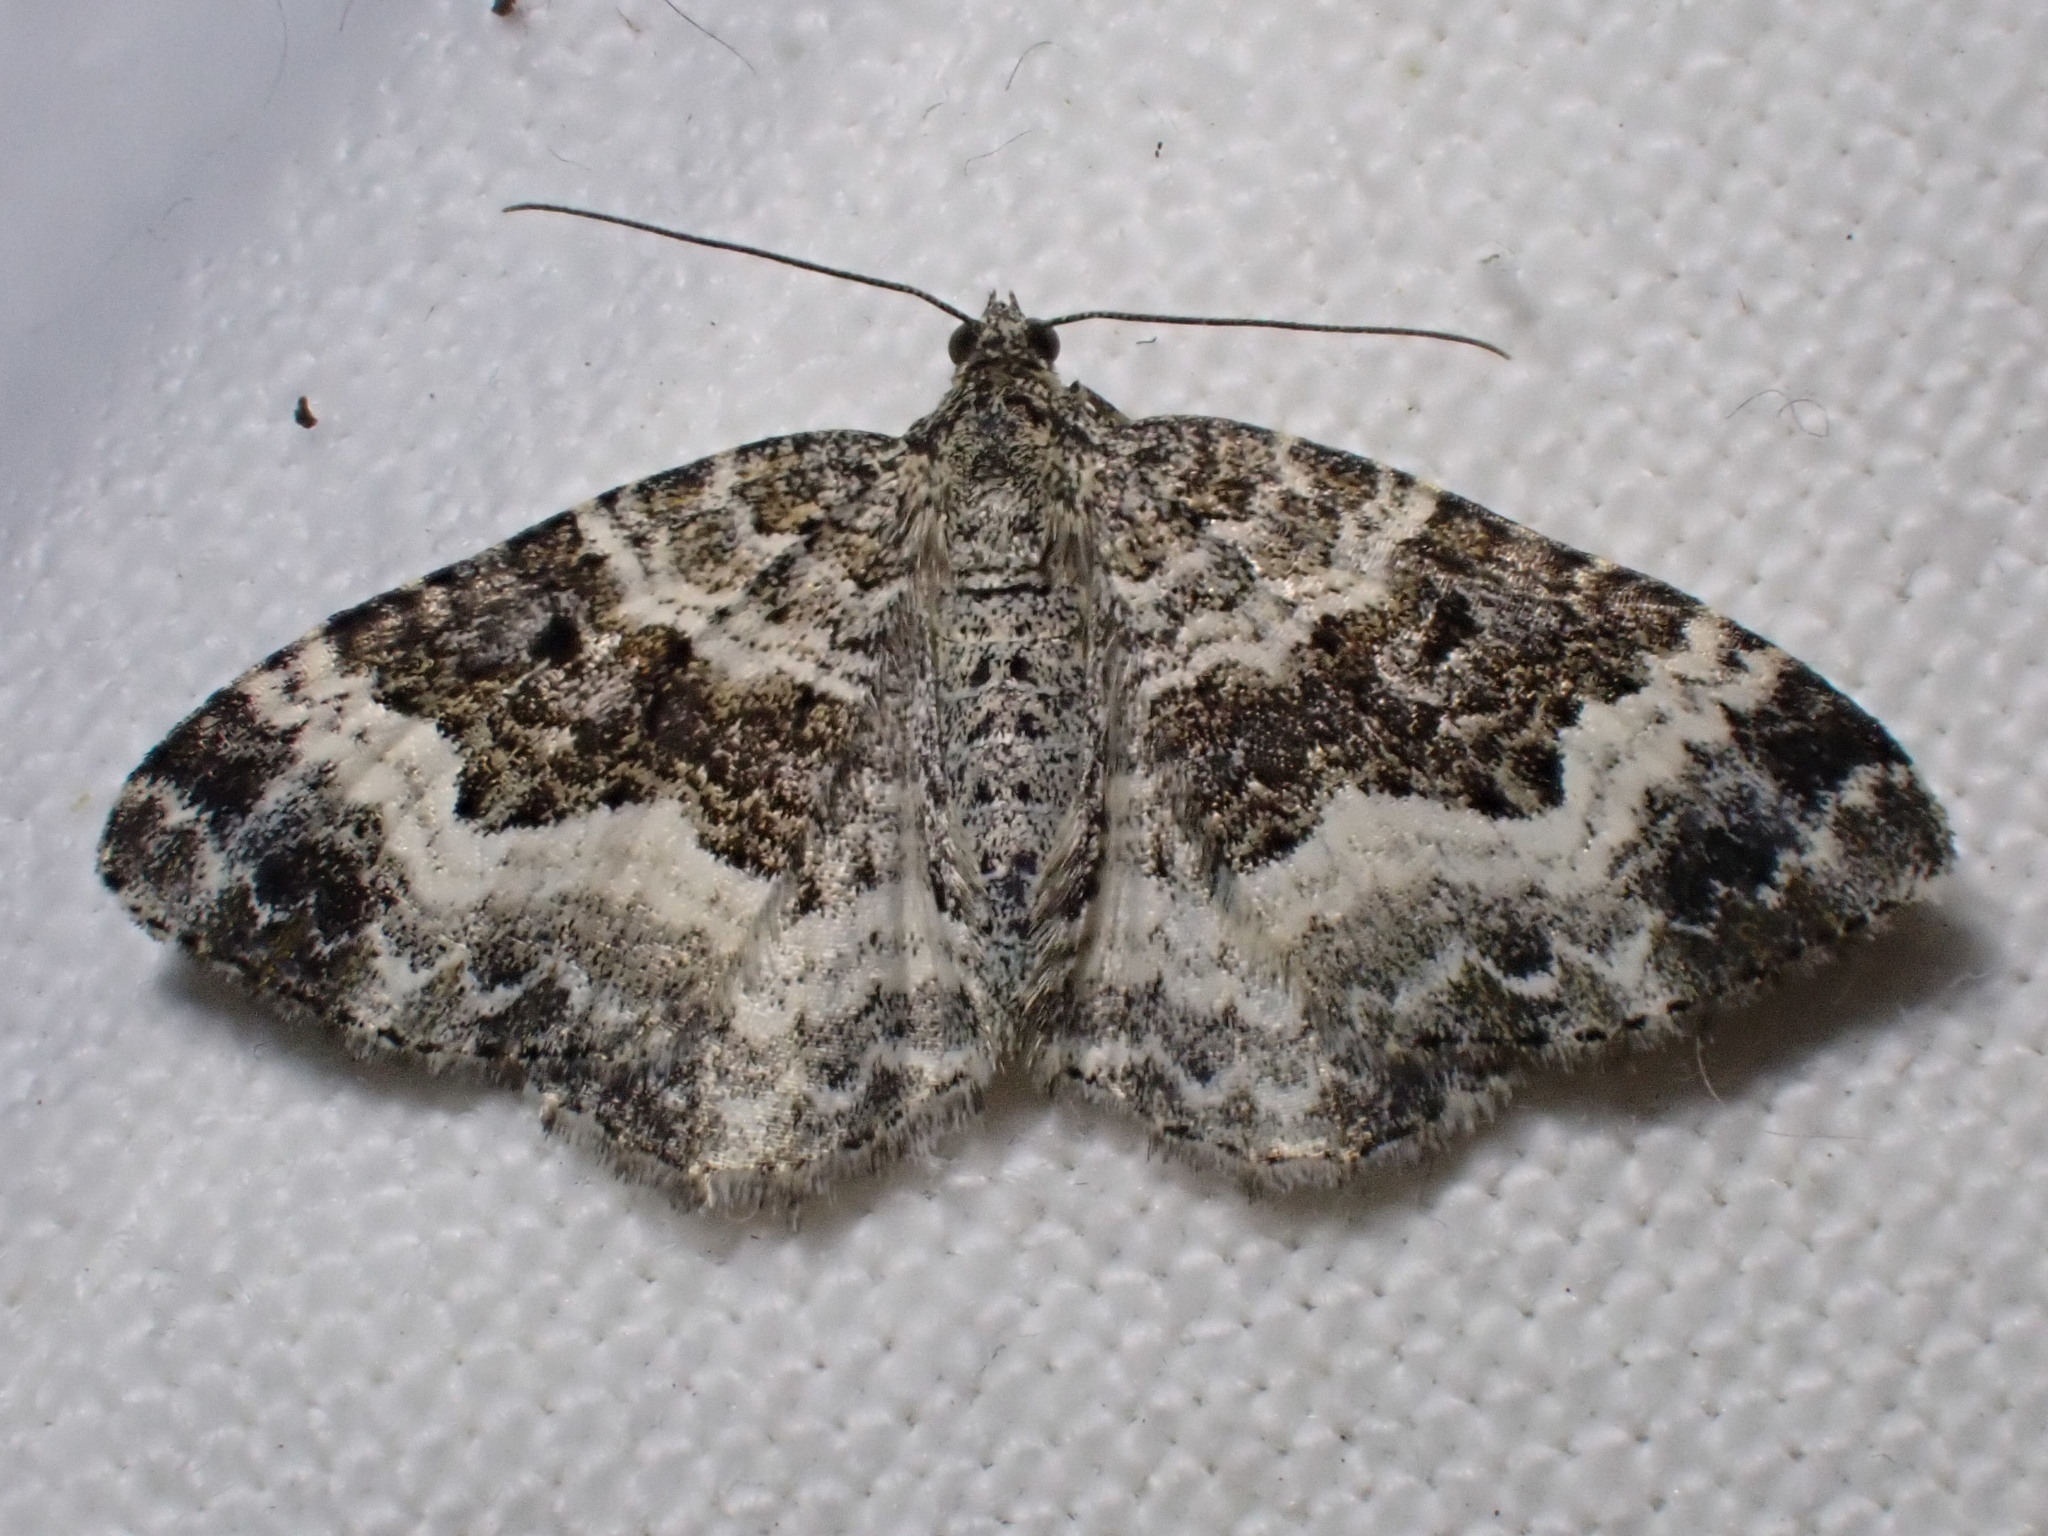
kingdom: Animalia
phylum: Arthropoda
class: Insecta
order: Lepidoptera
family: Geometridae
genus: Epirrhoe
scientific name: Epirrhoe alternata
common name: Common carpet
